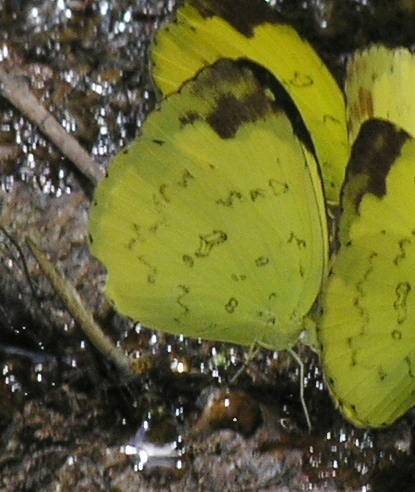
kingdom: Animalia
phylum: Arthropoda
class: Insecta
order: Lepidoptera
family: Pieridae
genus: Eurema
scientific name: Eurema simulatrix
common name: Hill grass yellow
